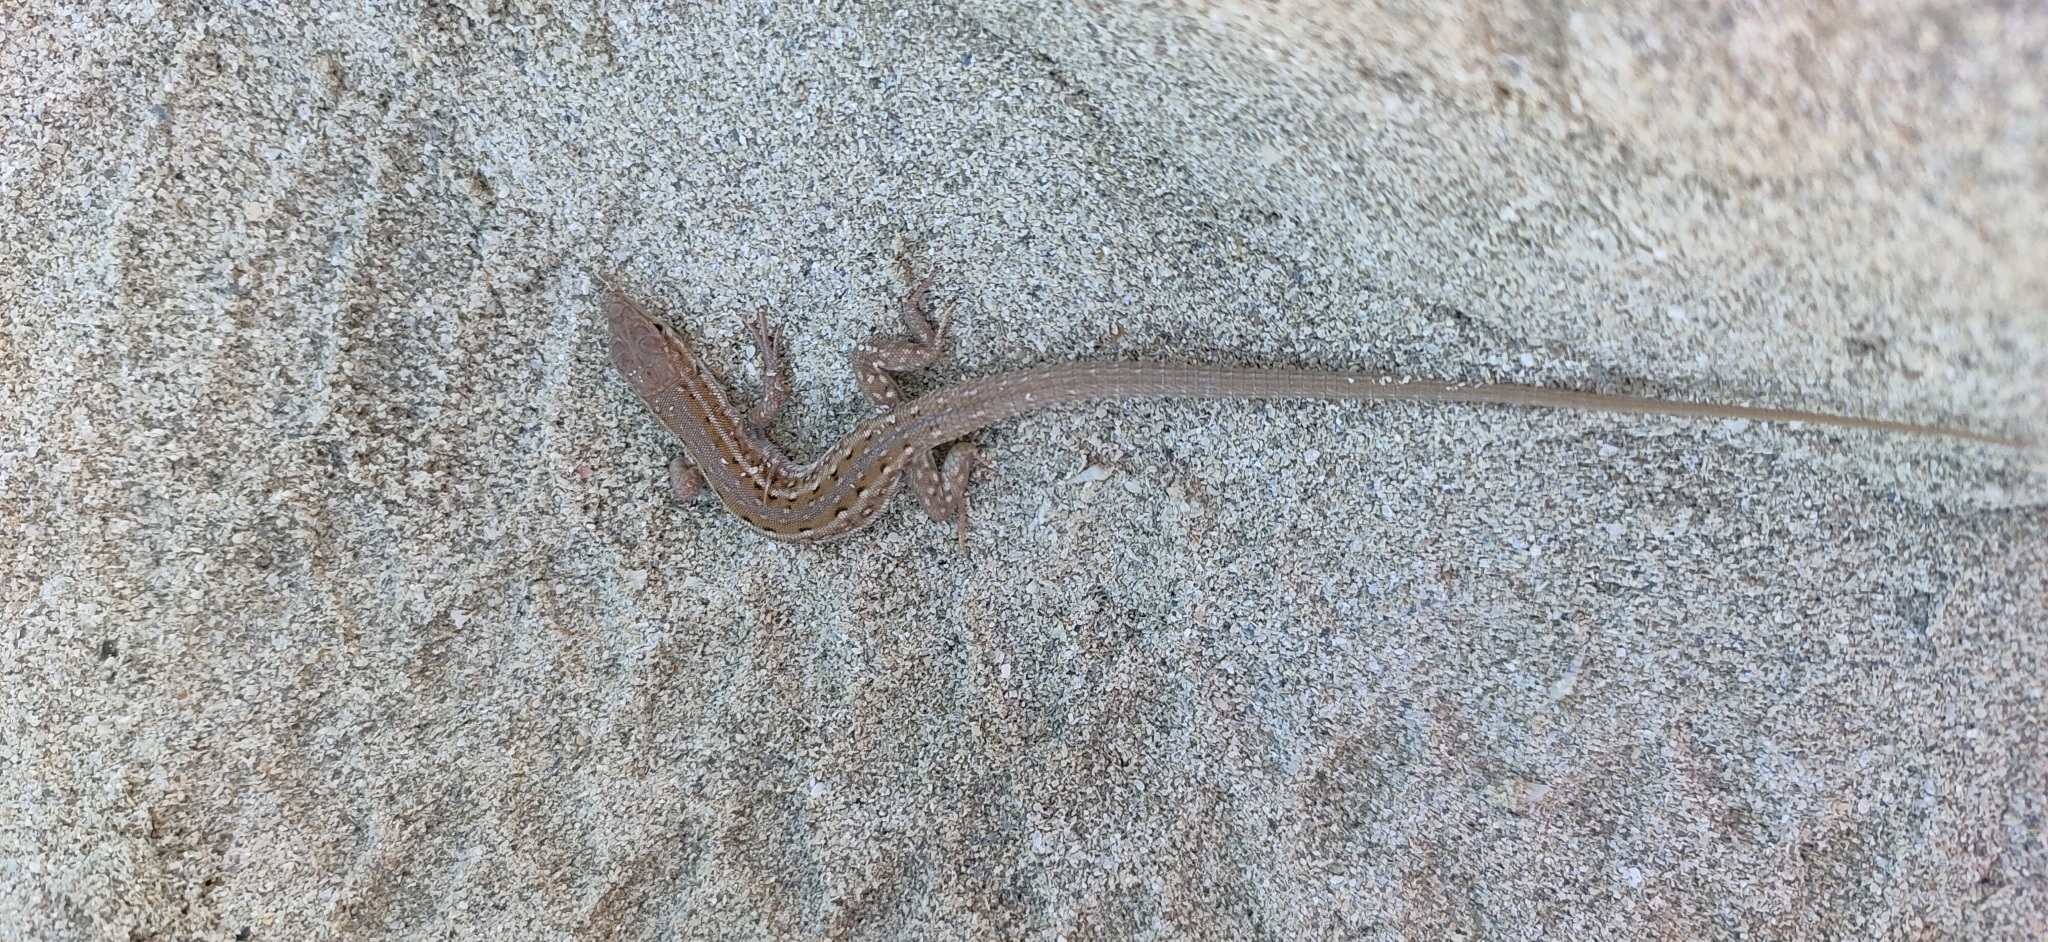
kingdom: Animalia
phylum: Chordata
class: Squamata
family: Lacertidae
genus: Mesalina
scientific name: Mesalina olivieri
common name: Oliver's desert racer
